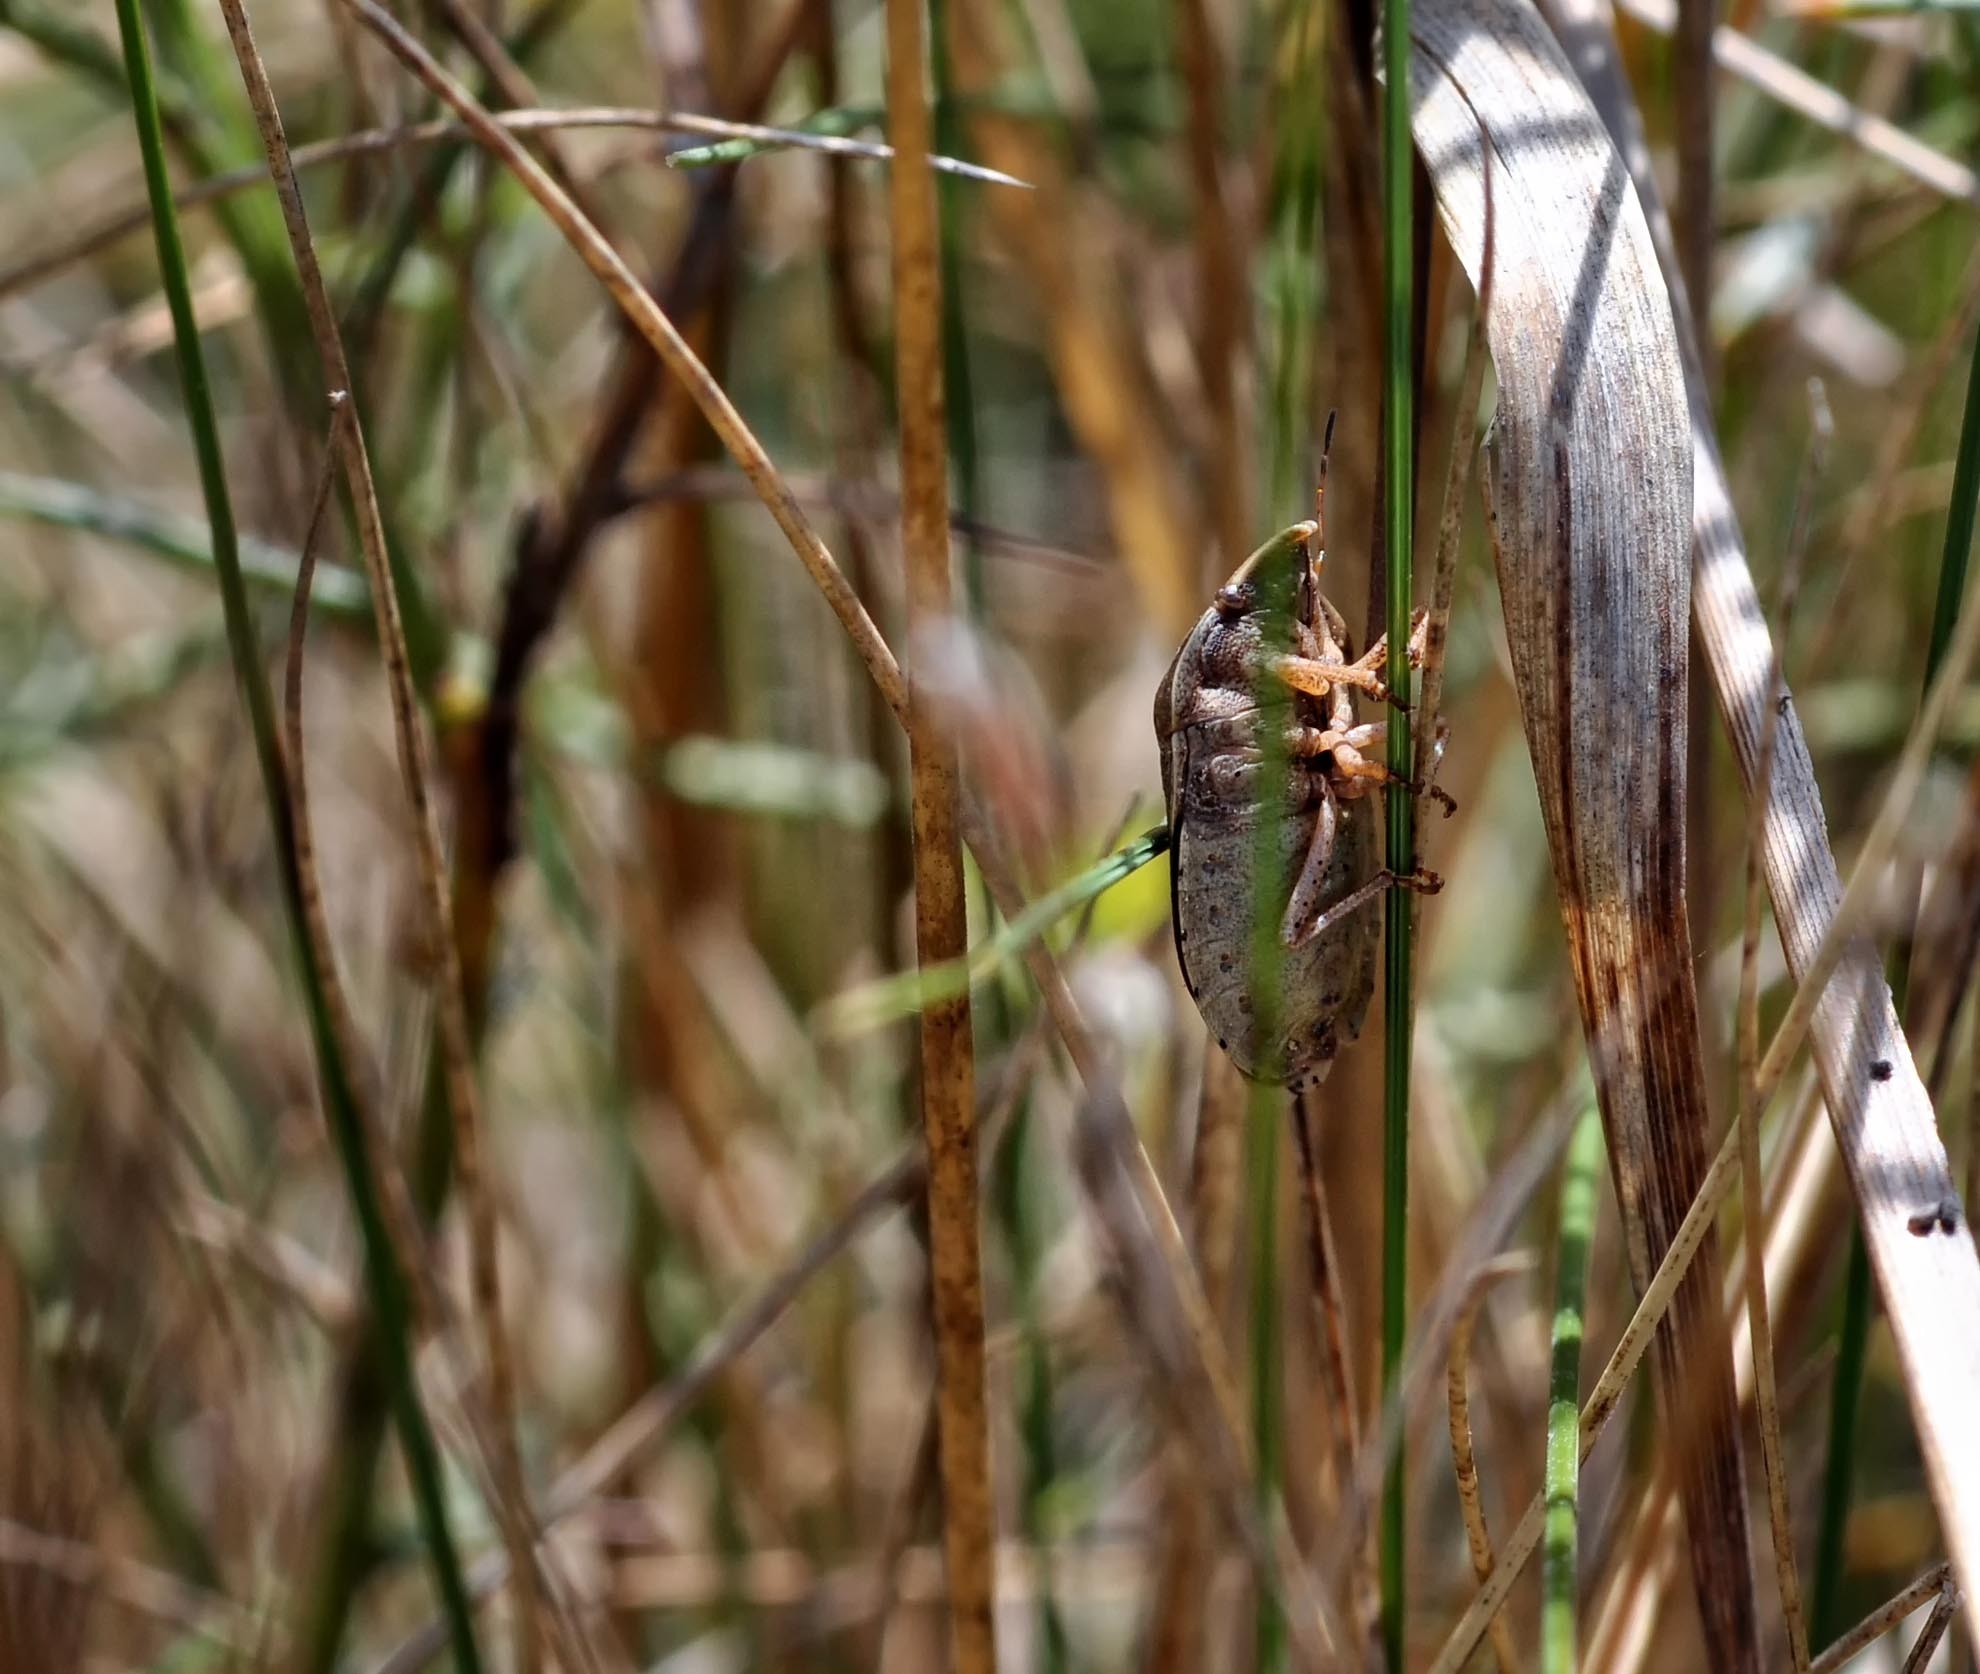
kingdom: Animalia
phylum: Arthropoda
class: Insecta
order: Hemiptera
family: Scutelleridae
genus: Eurygaster
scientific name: Eurygaster austriaca
